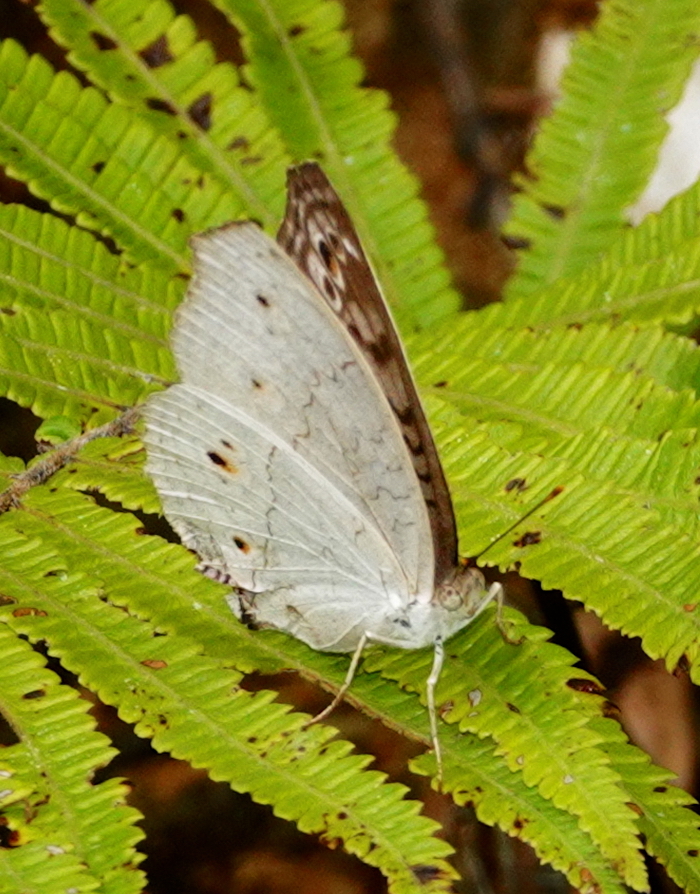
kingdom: Animalia
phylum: Arthropoda
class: Insecta
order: Lepidoptera
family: Nymphalidae
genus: Junonia
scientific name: Junonia atlites
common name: Grey pansy
